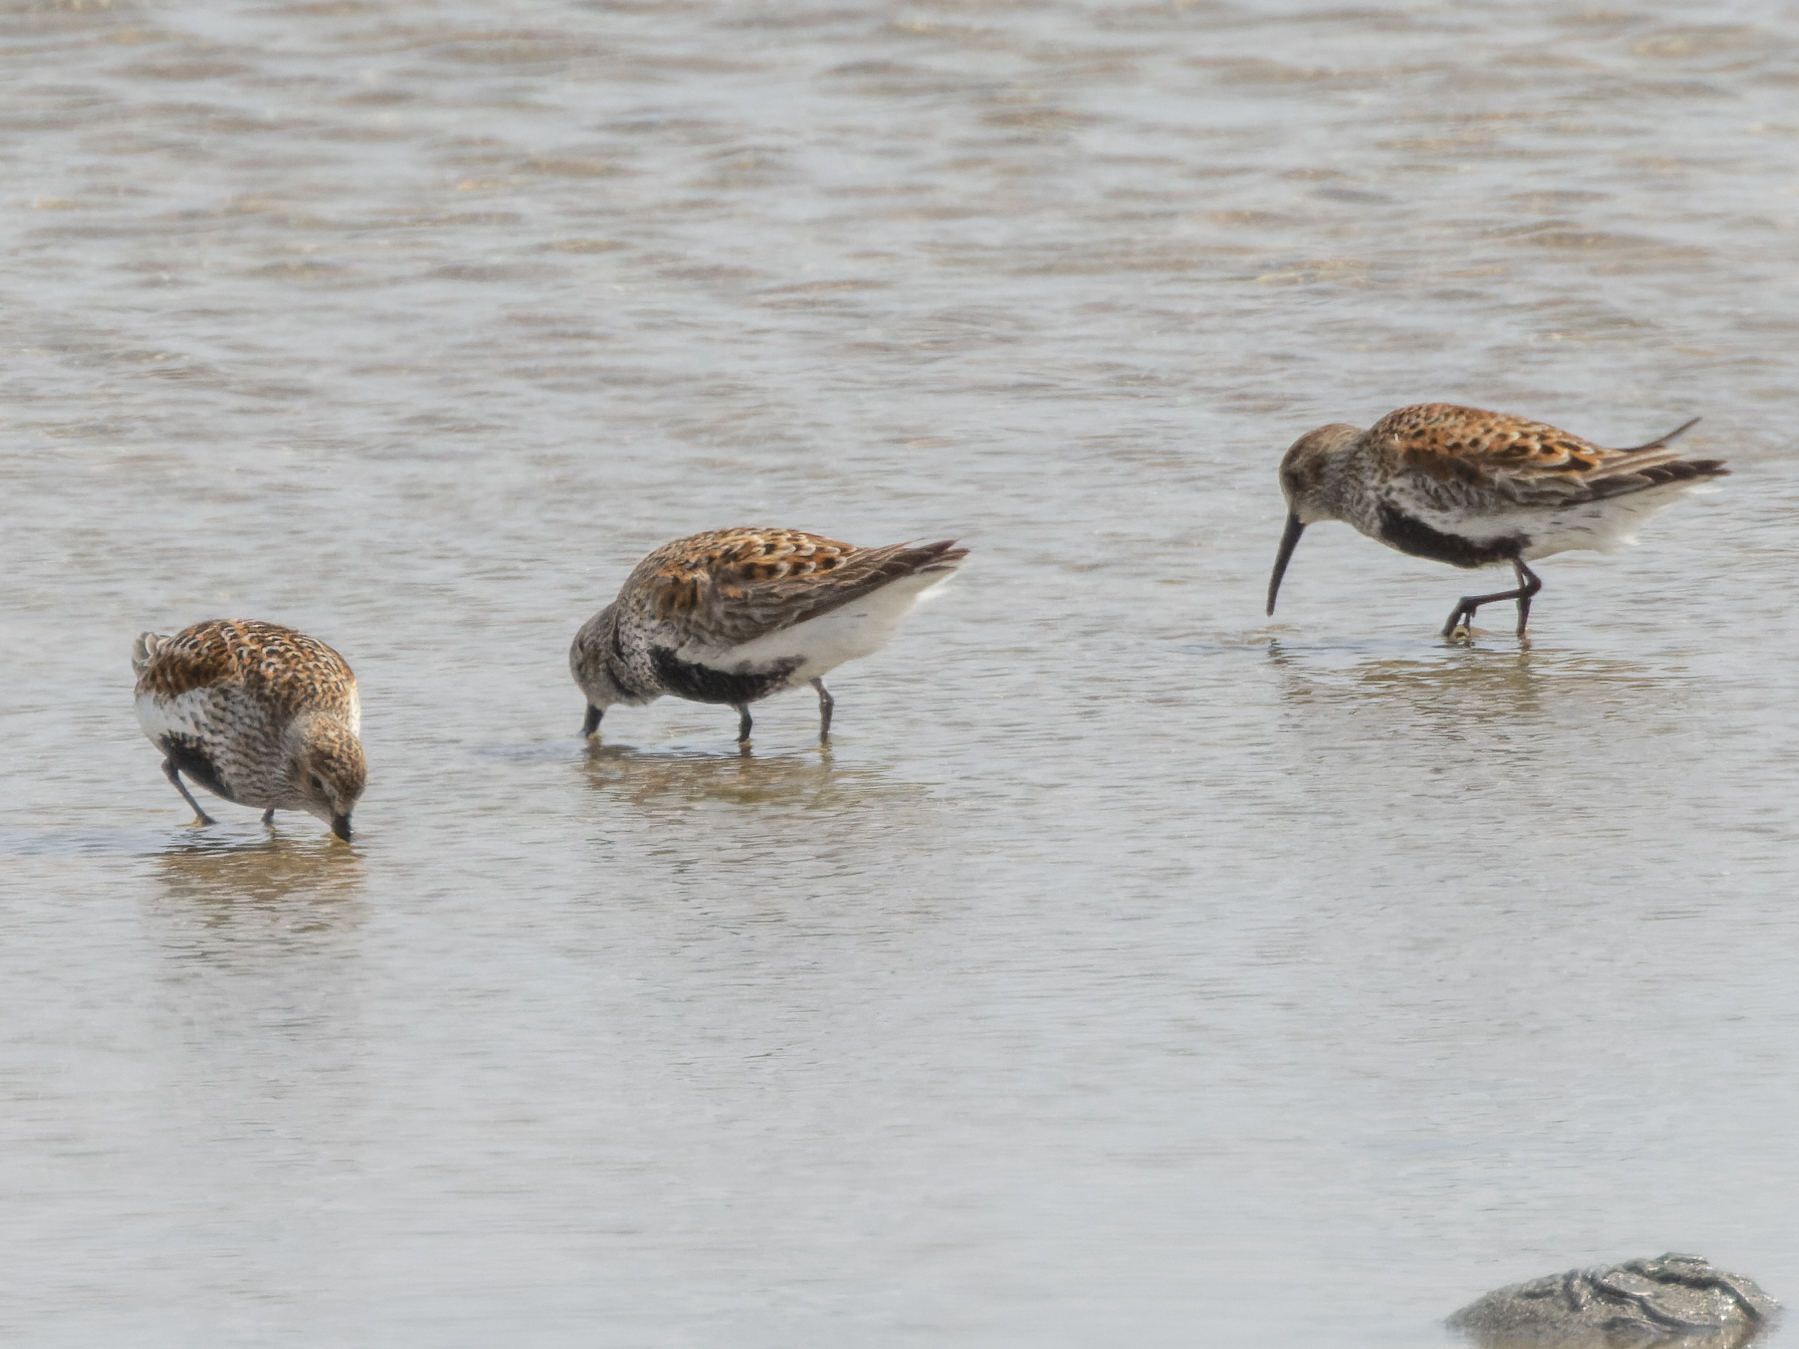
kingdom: Animalia
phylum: Chordata
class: Aves
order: Charadriiformes
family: Scolopacidae
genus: Calidris
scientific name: Calidris alpina
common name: Dunlin
